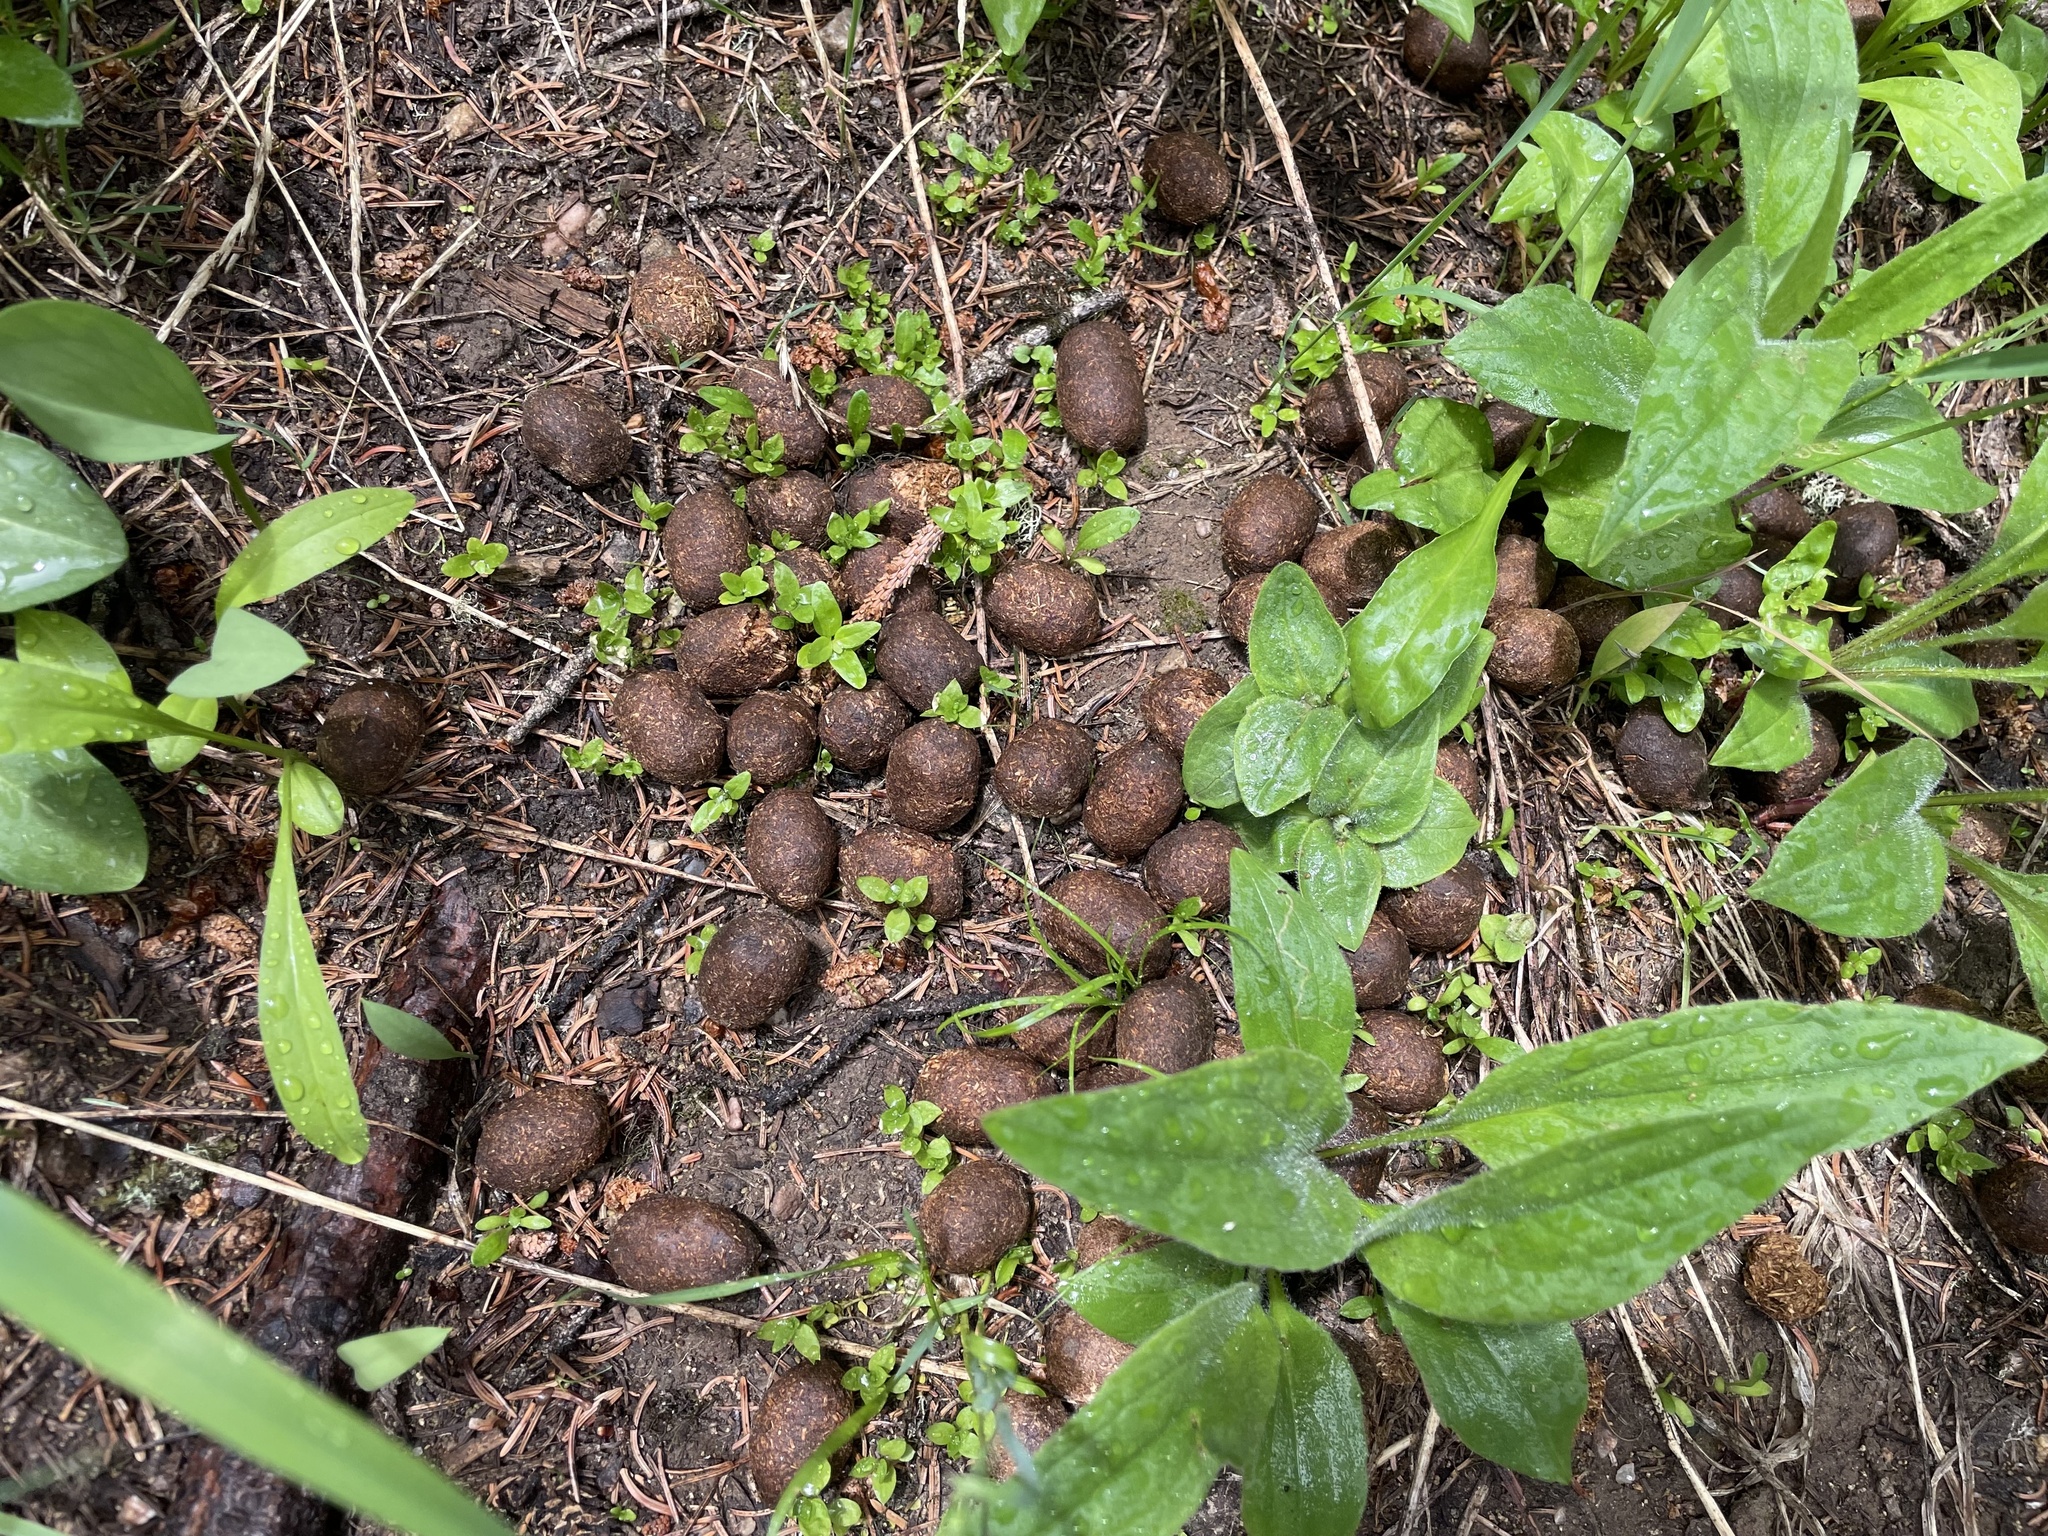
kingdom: Animalia
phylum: Chordata
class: Mammalia
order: Artiodactyla
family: Cervidae
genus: Alces
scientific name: Alces alces
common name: Moose
